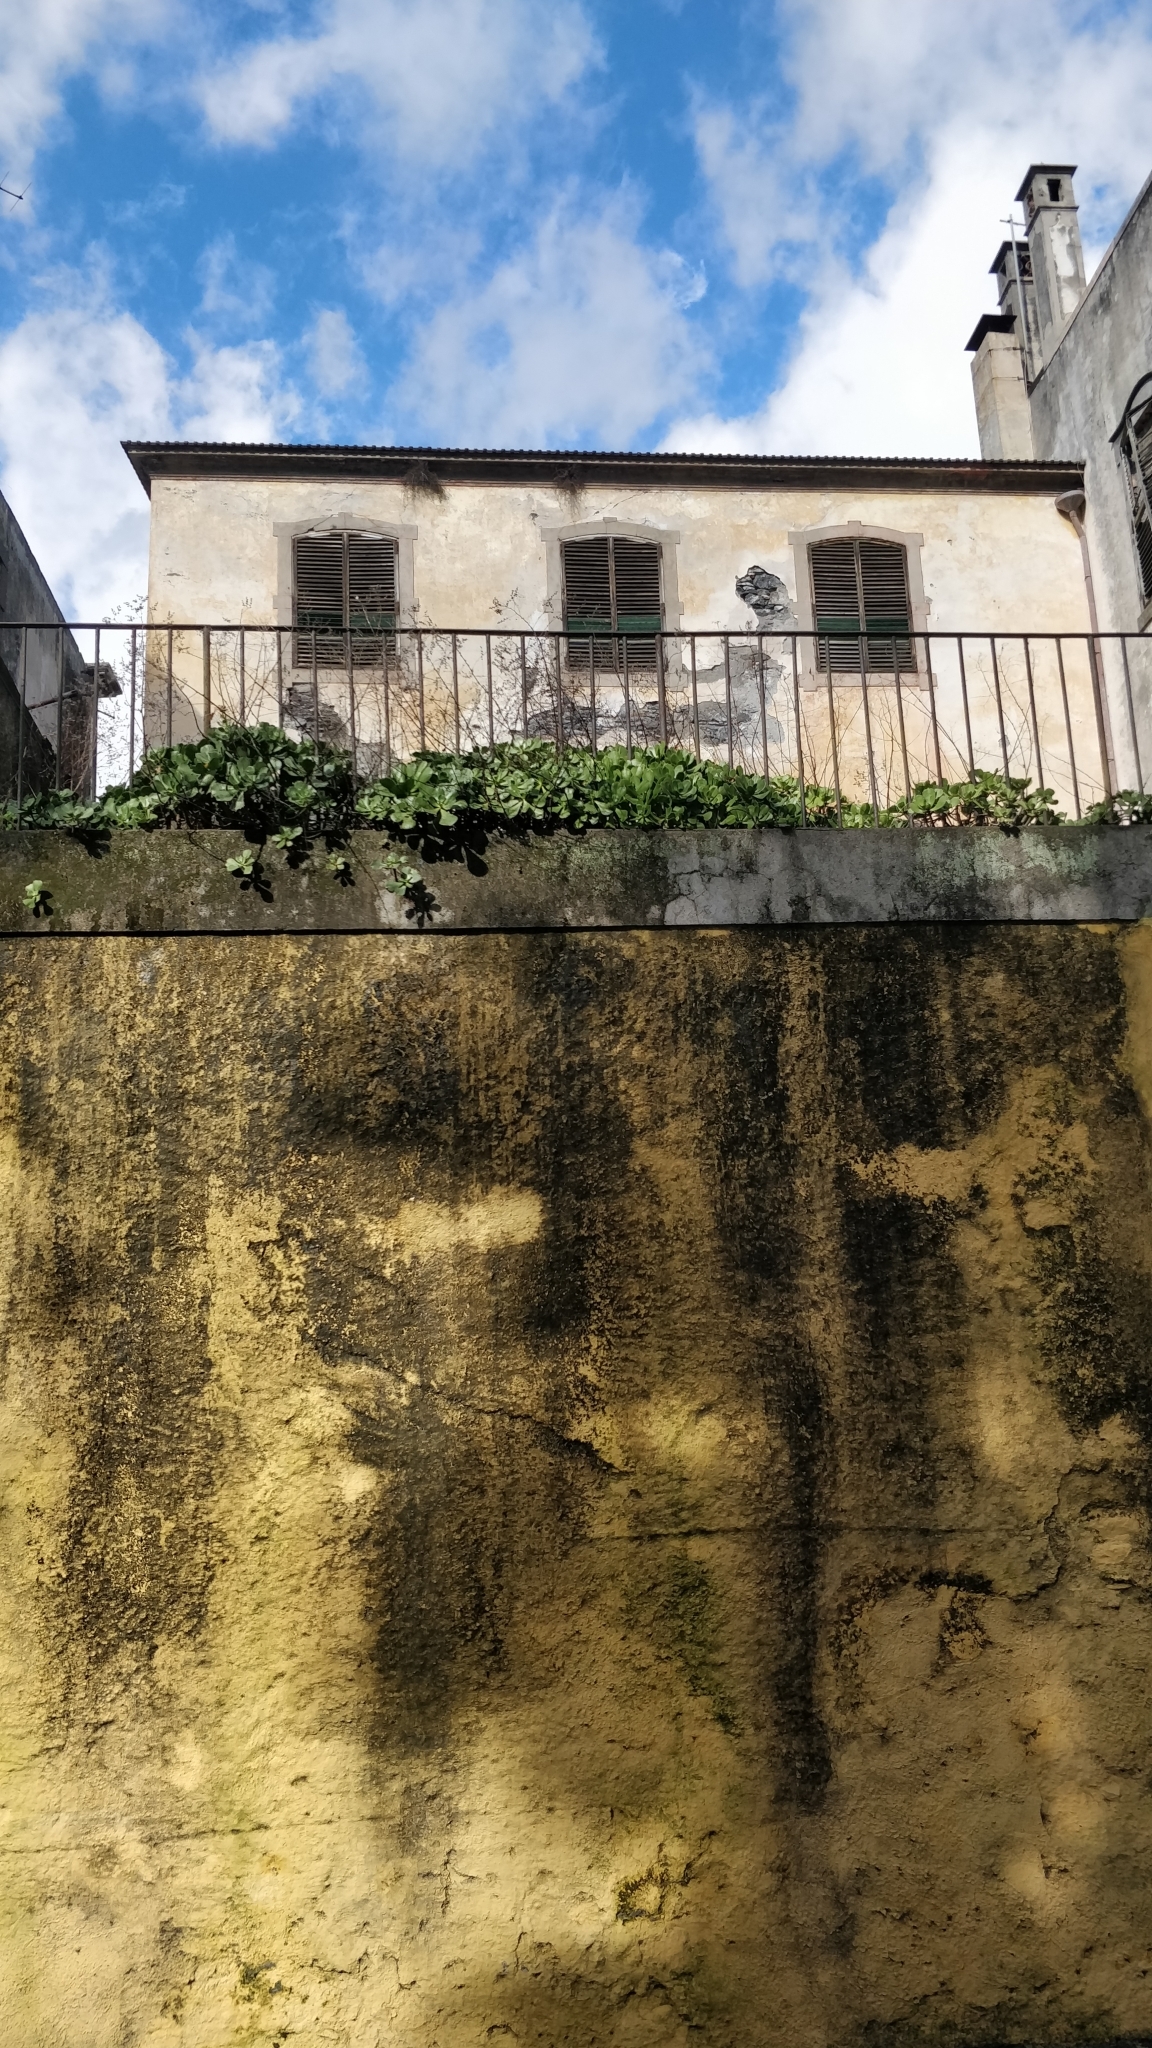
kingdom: Plantae
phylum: Tracheophyta
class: Magnoliopsida
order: Saxifragales
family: Crassulaceae
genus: Aeonium
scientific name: Aeonium glutinosum
